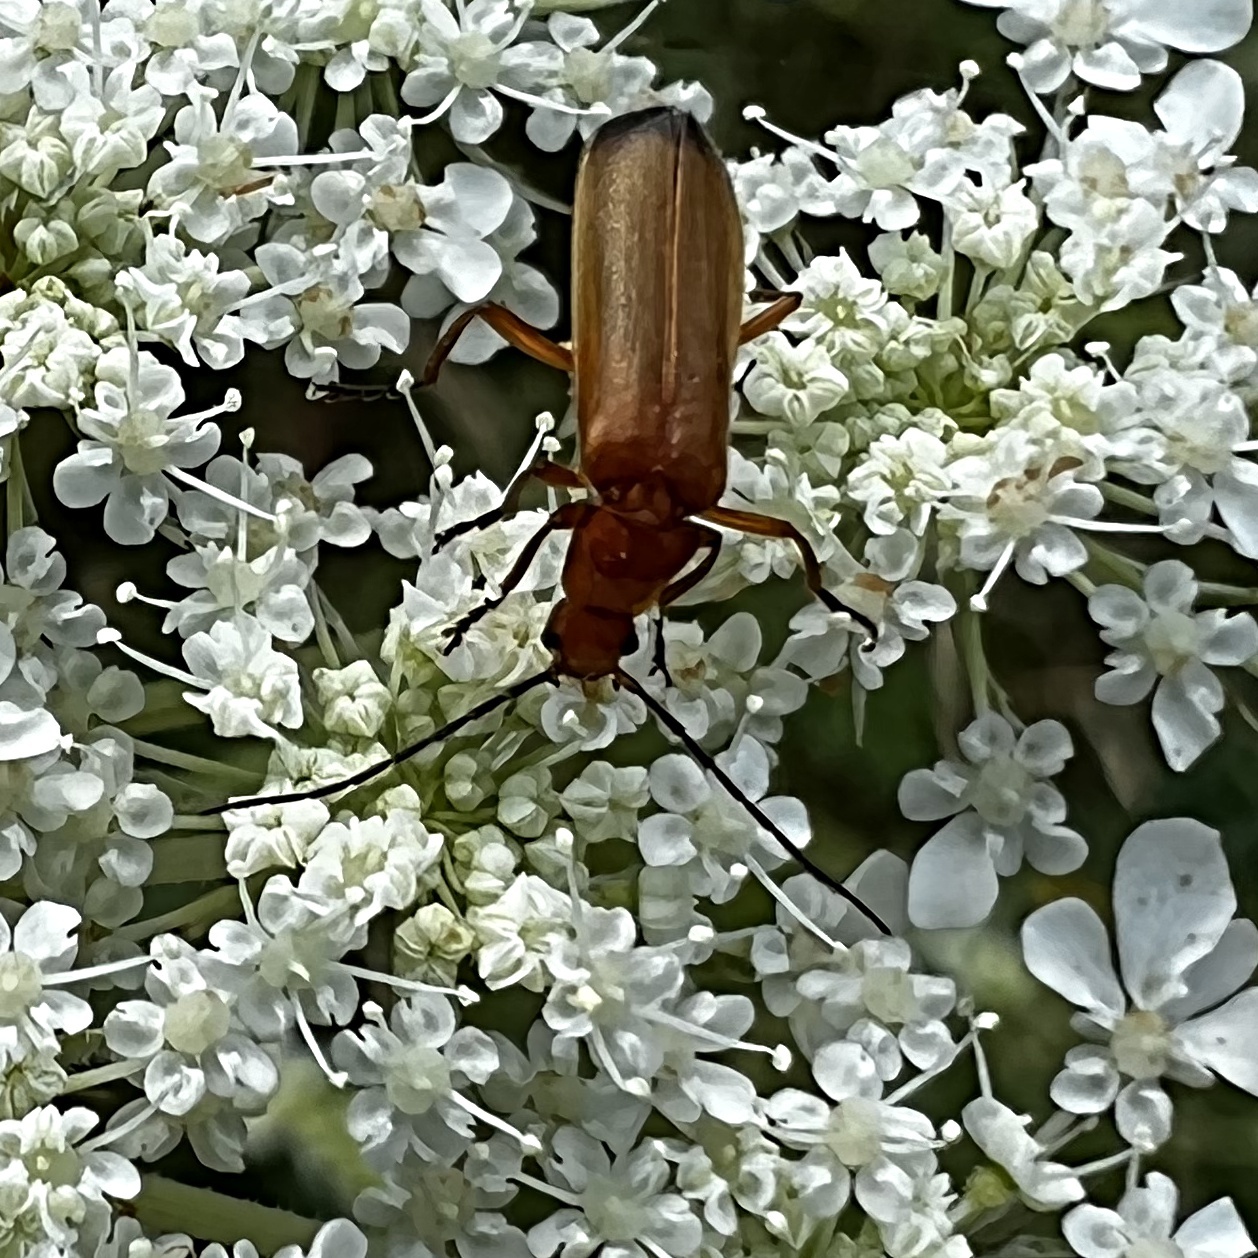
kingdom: Animalia
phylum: Arthropoda
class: Insecta
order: Coleoptera
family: Cantharidae
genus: Rhagonycha
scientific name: Rhagonycha fulva
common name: Common red soldier beetle
